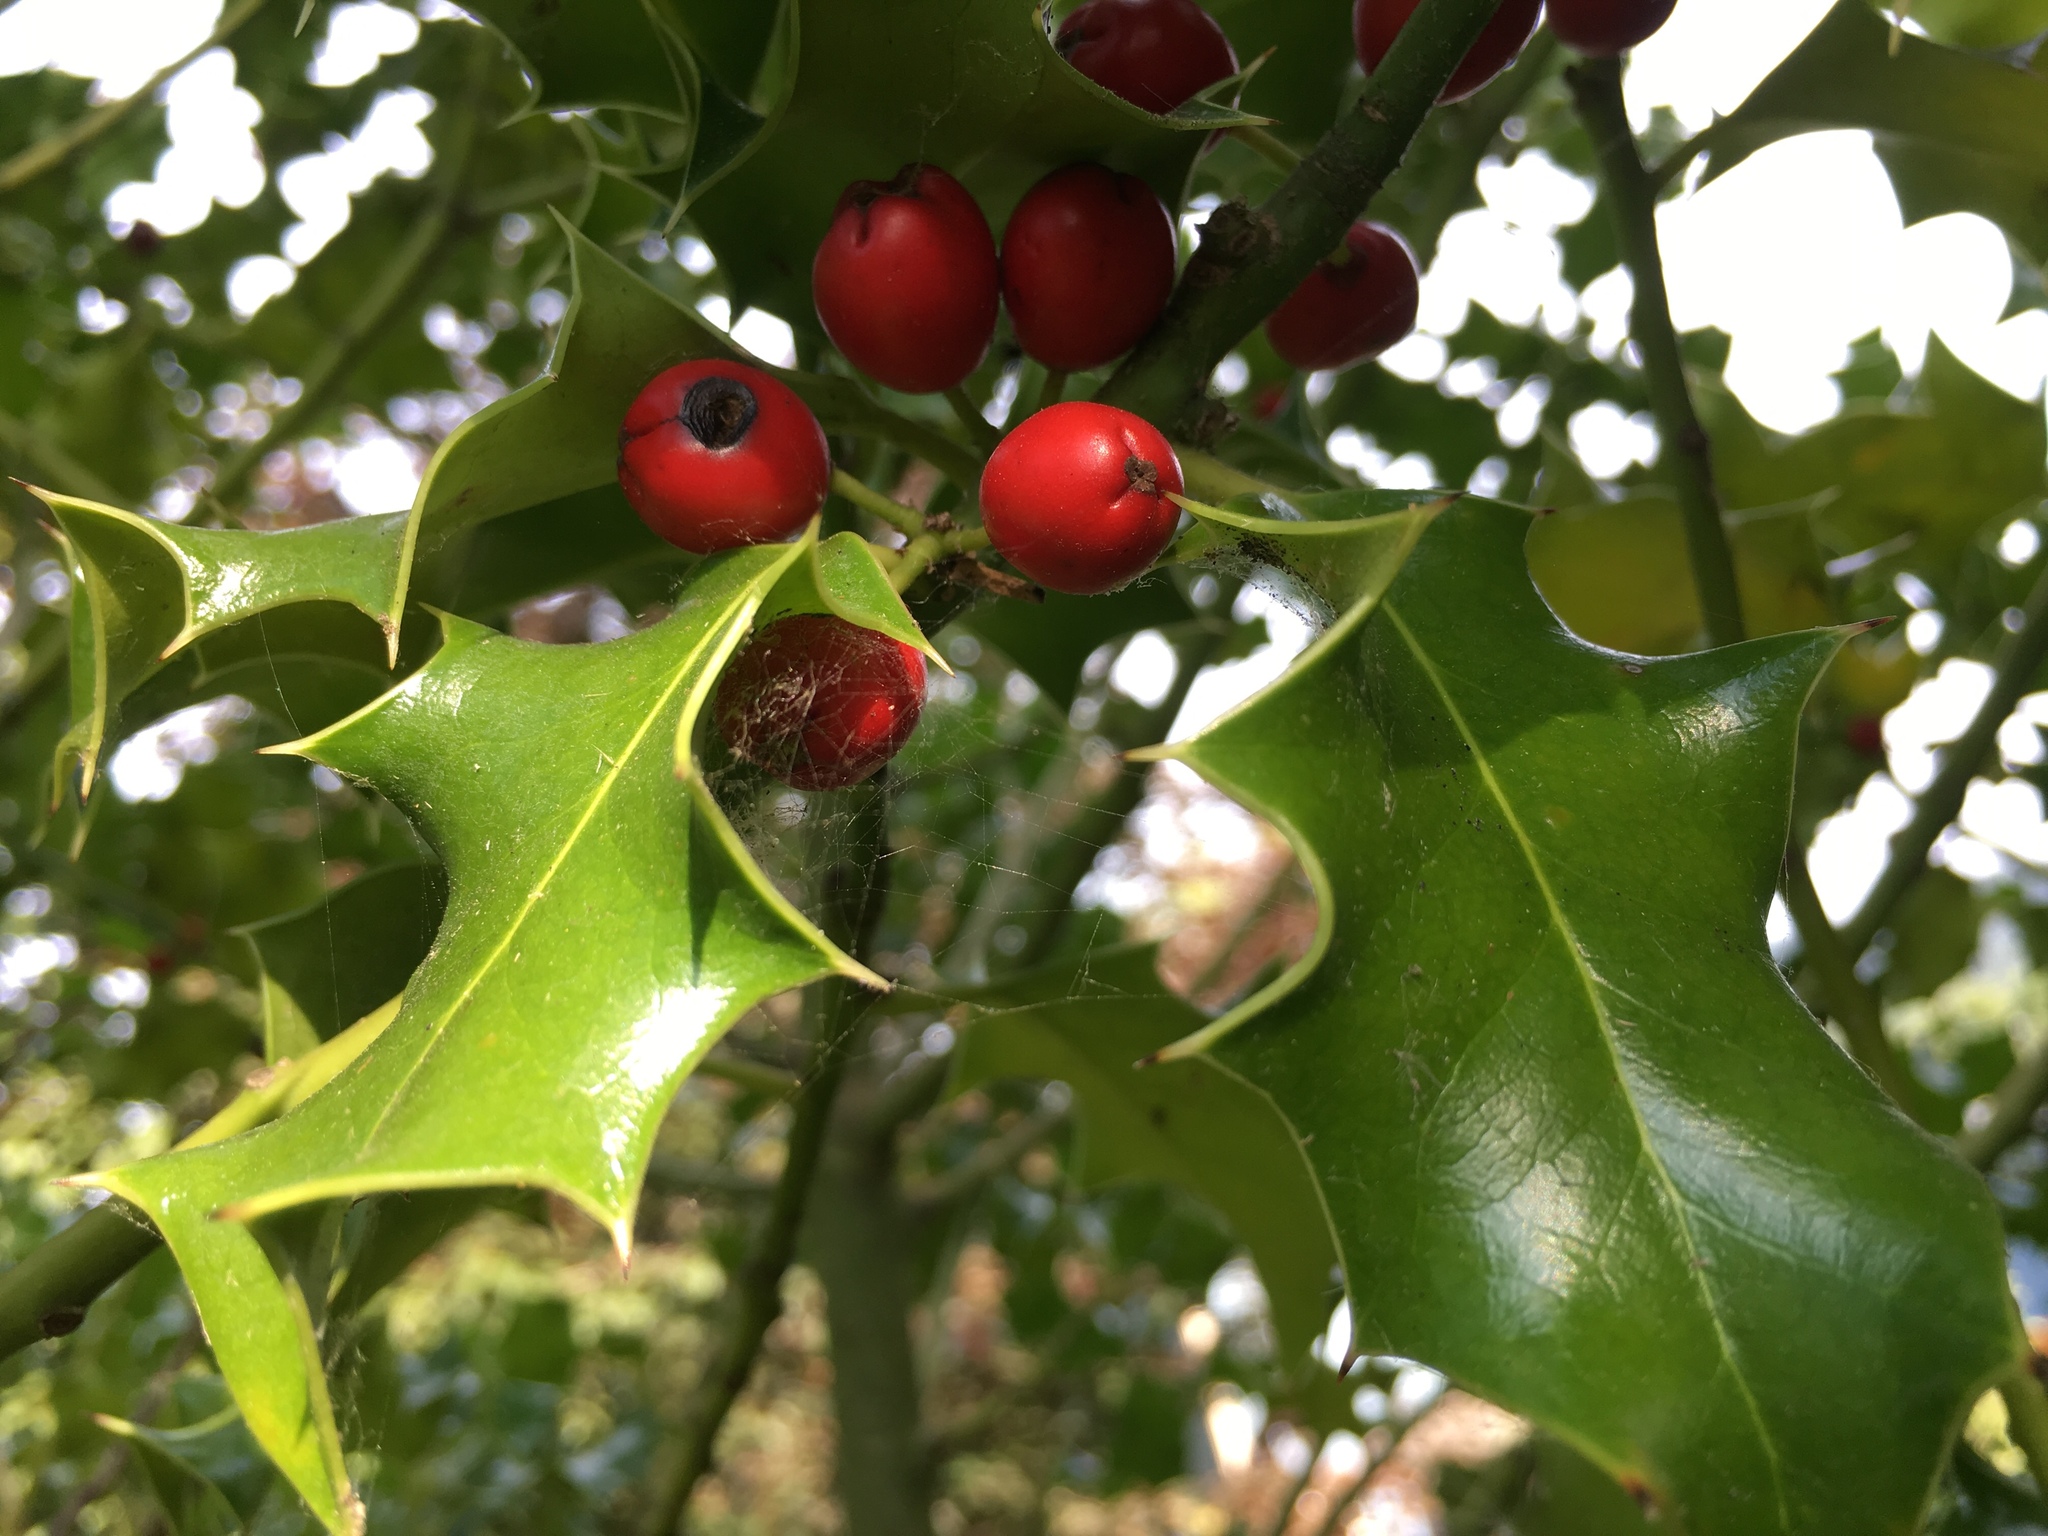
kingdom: Plantae
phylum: Tracheophyta
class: Magnoliopsida
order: Aquifoliales
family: Aquifoliaceae
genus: Ilex
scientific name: Ilex aquifolium
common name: English holly
